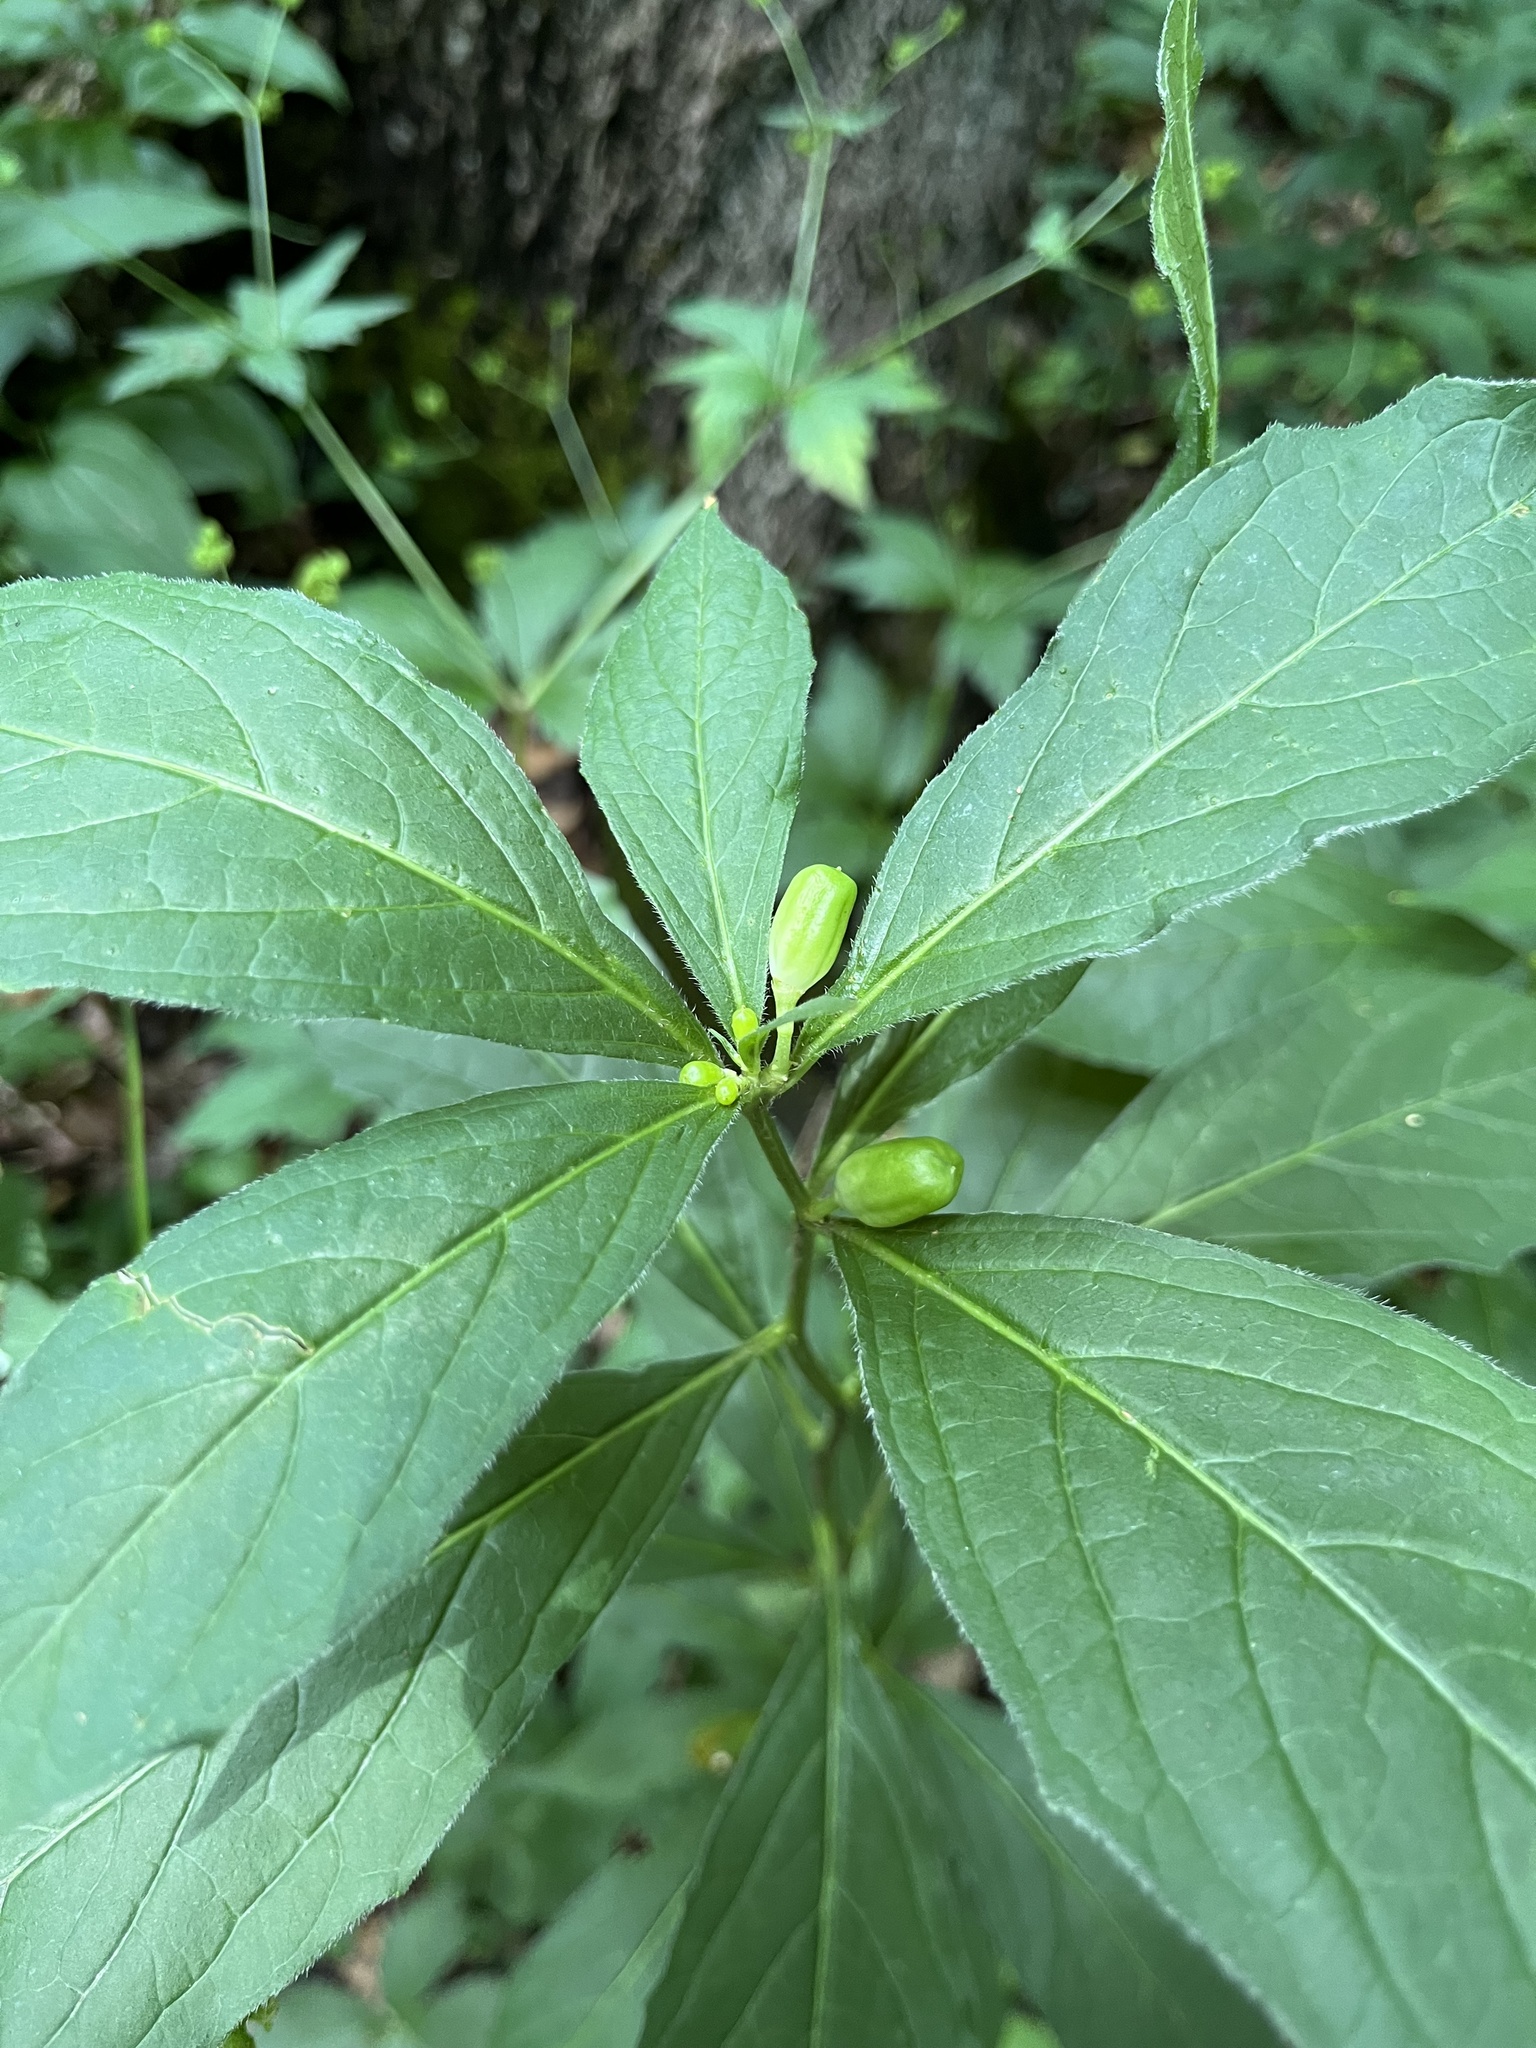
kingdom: Plantae
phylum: Tracheophyta
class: Magnoliopsida
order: Malpighiales
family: Violaceae
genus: Cubelium
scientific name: Cubelium concolor
